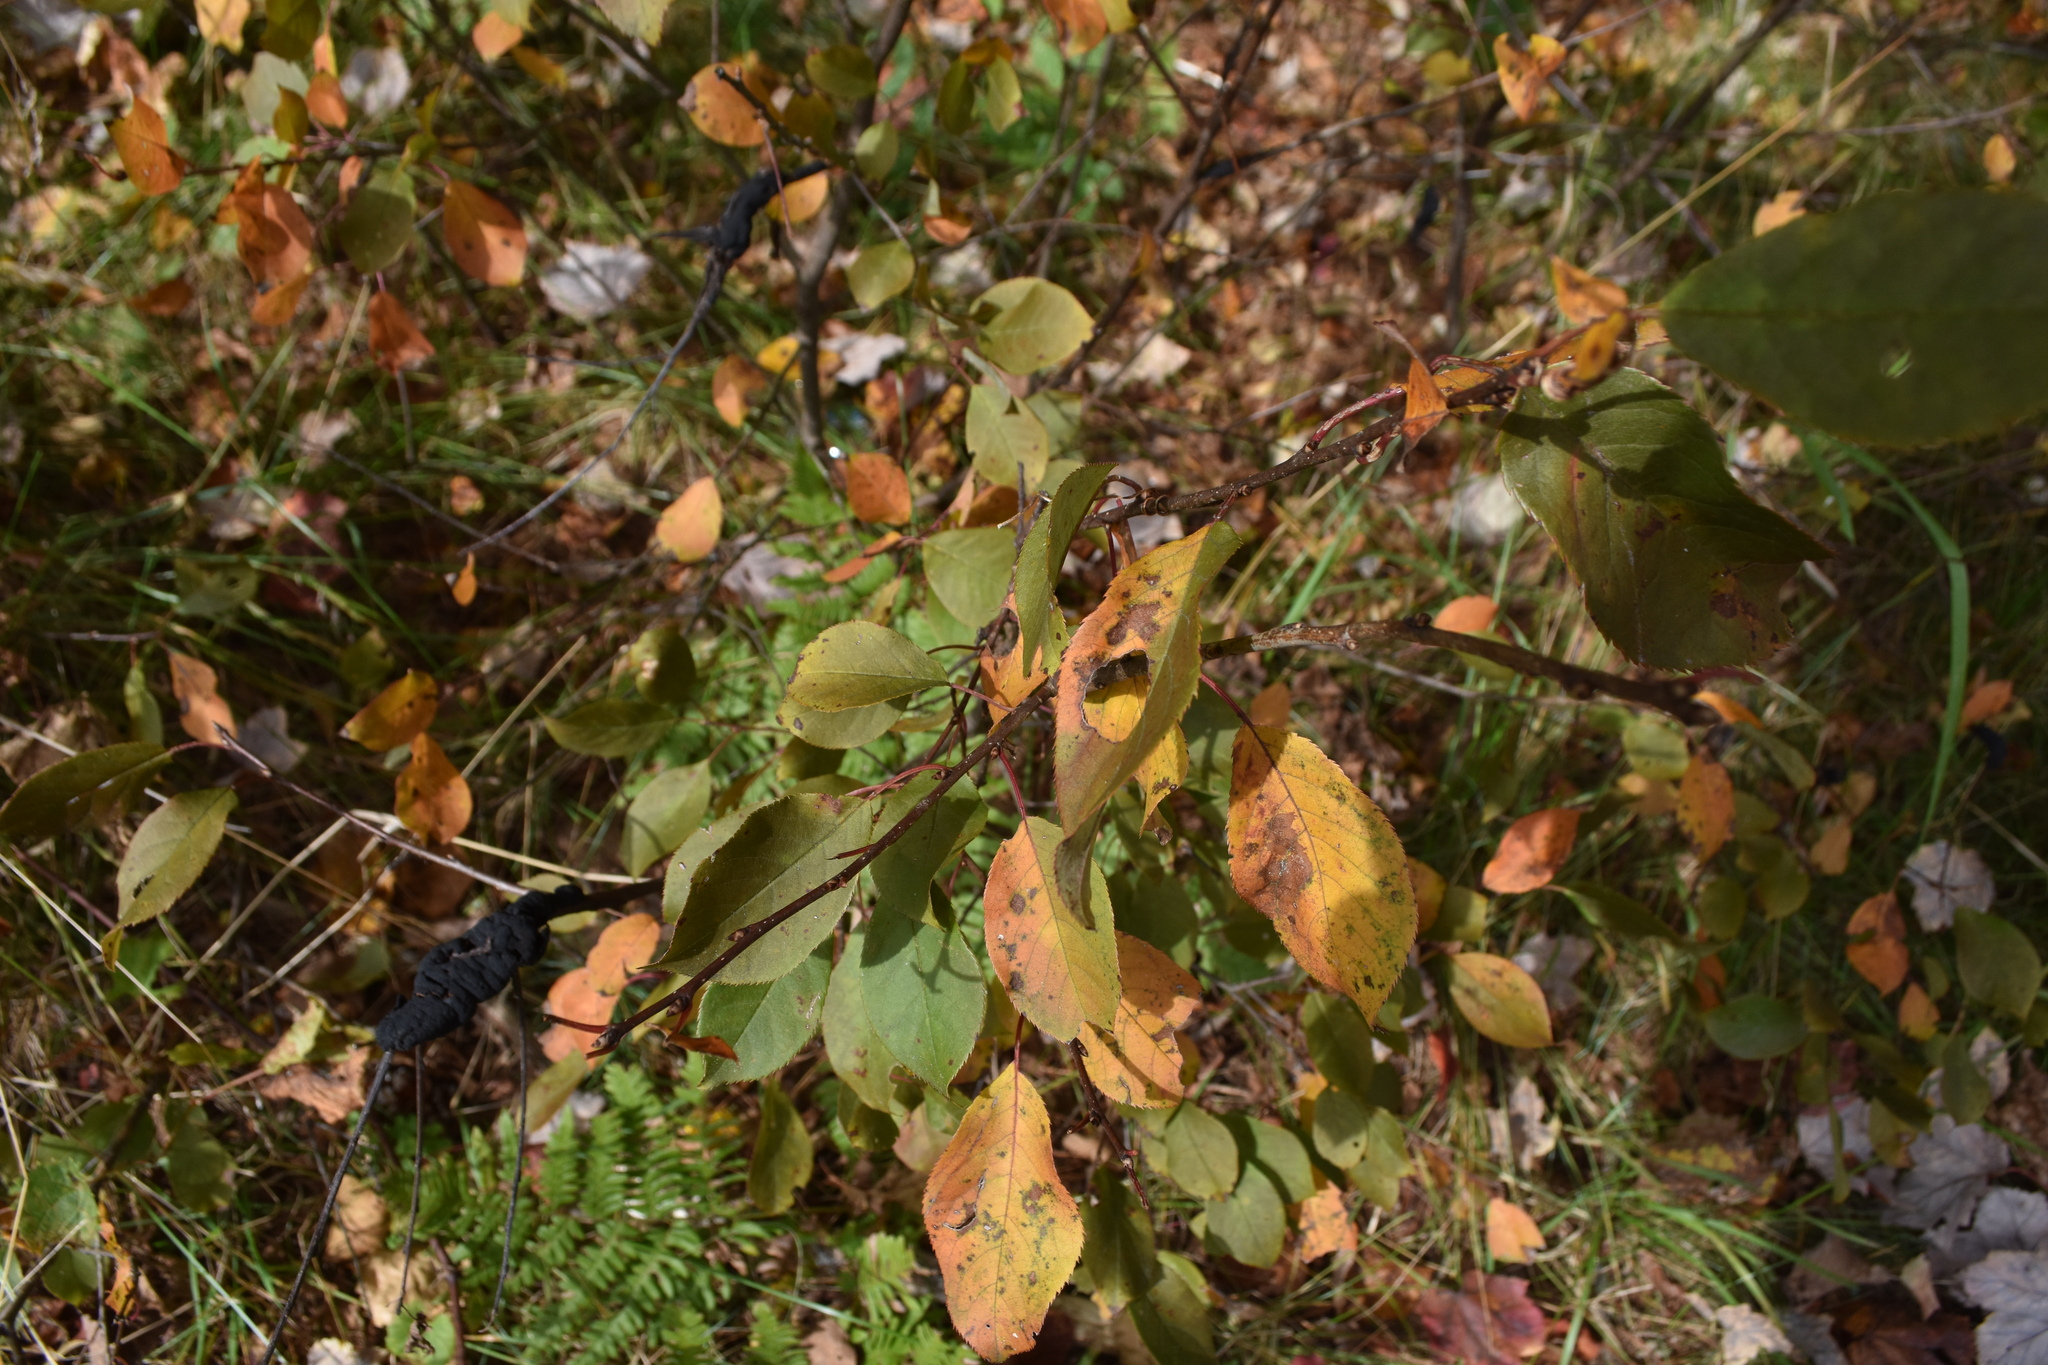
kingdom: Plantae
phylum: Tracheophyta
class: Magnoliopsida
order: Rosales
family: Rosaceae
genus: Prunus
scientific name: Prunus virginiana
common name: Chokecherry
